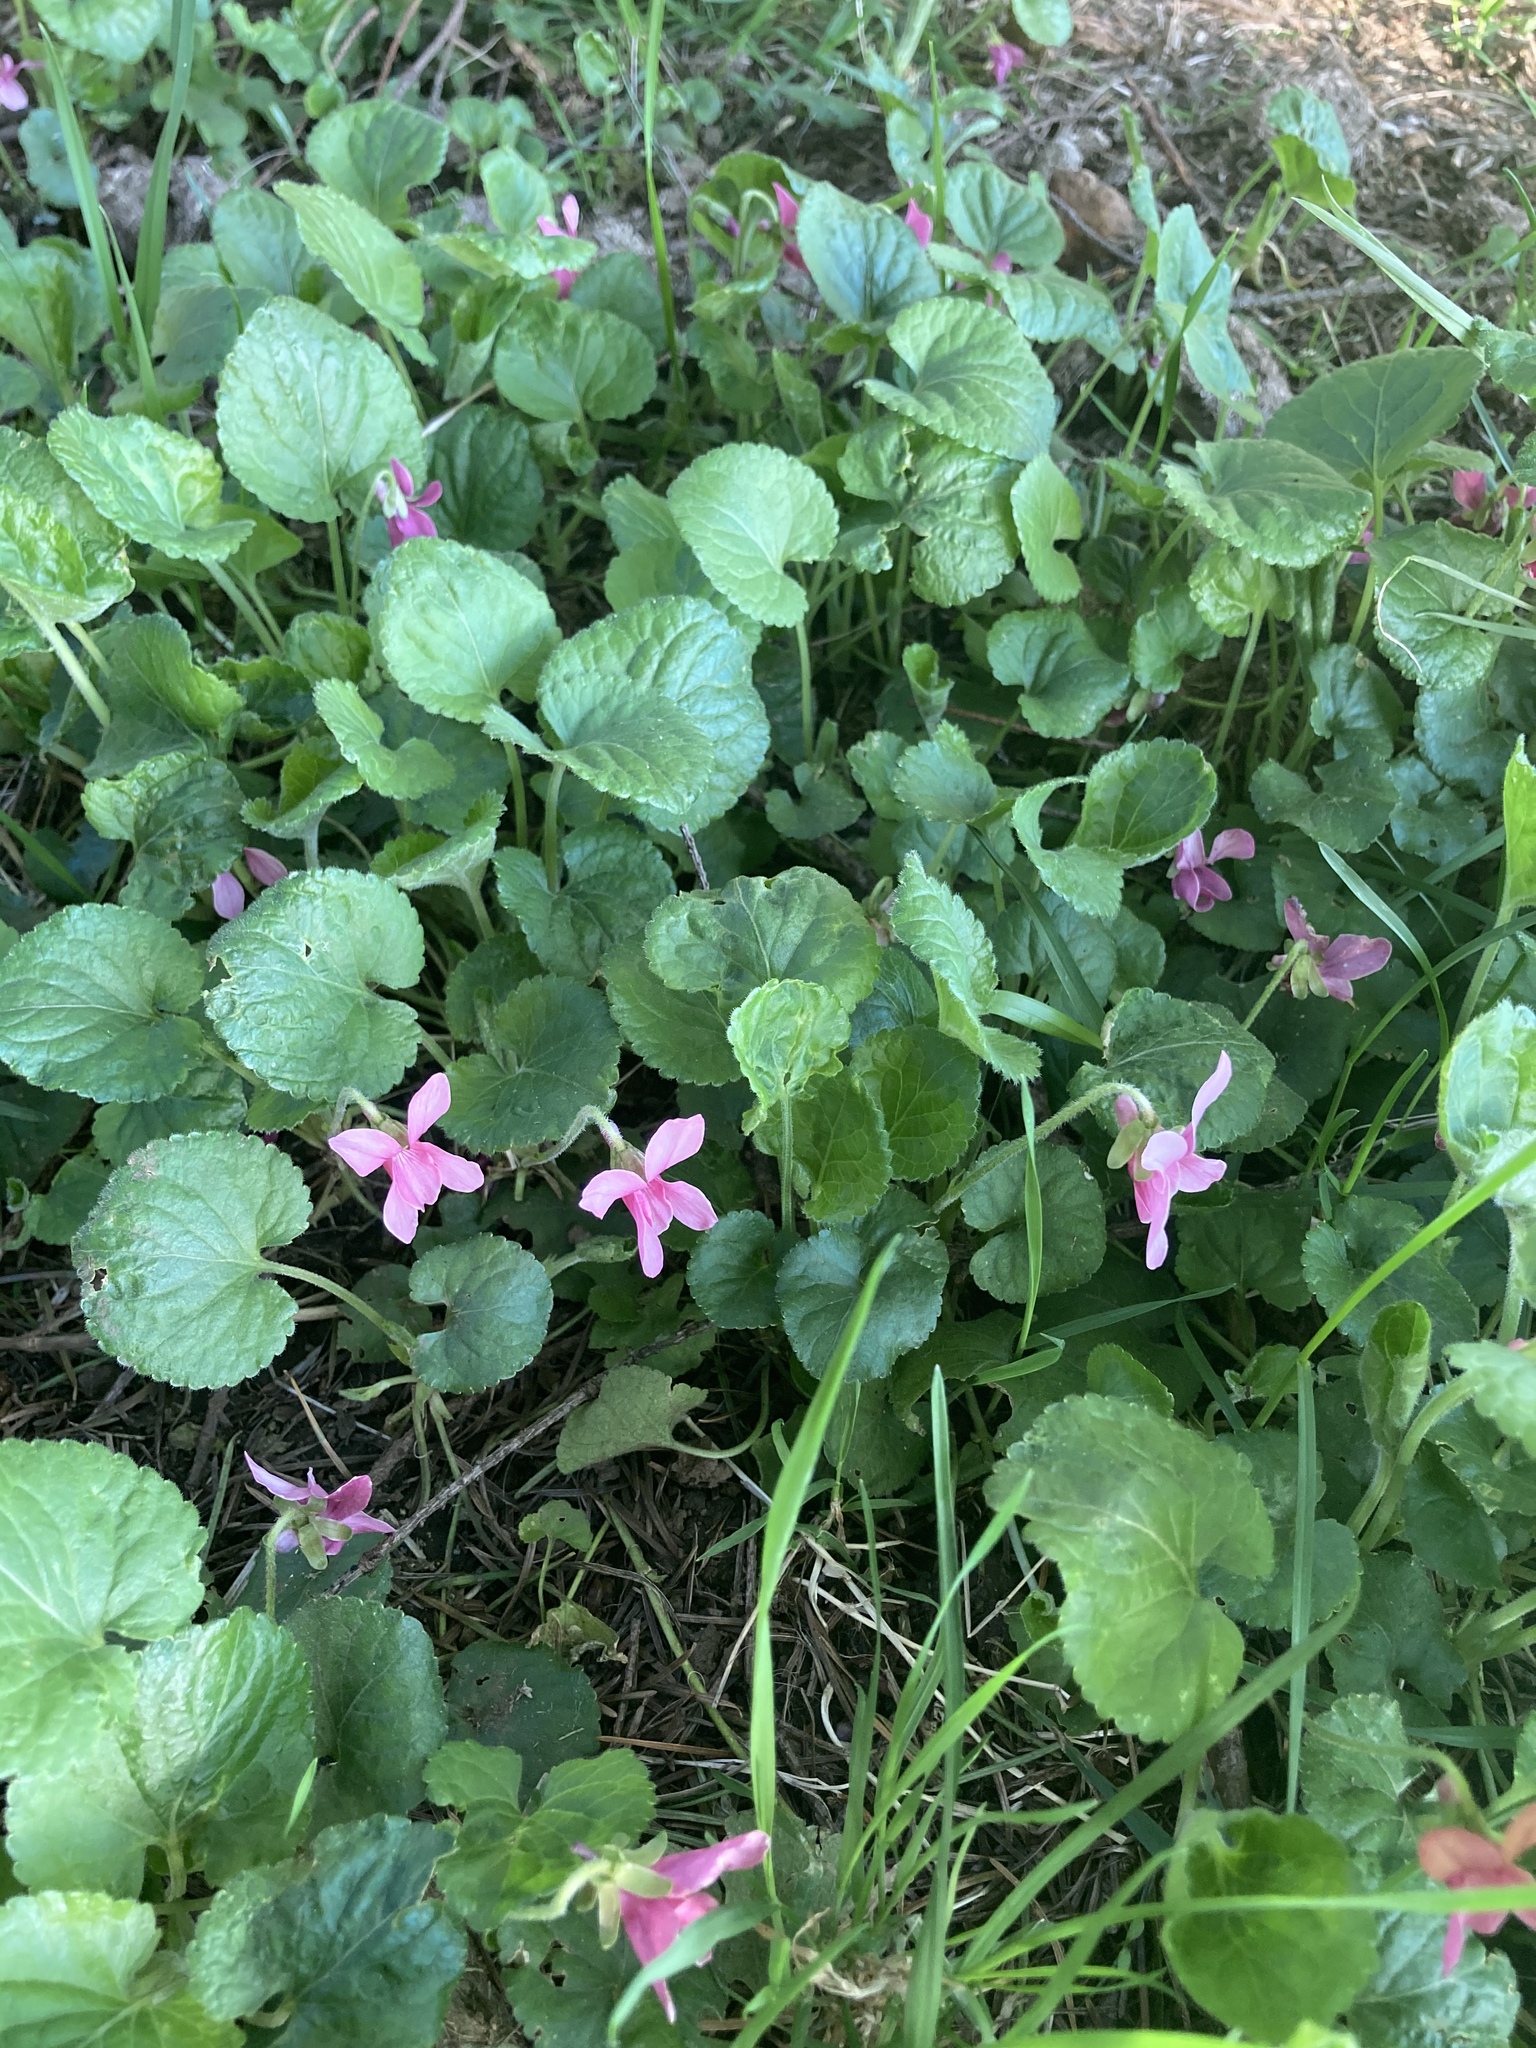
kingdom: Plantae
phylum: Tracheophyta
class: Magnoliopsida
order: Malpighiales
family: Violaceae
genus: Viola
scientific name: Viola odorata
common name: Sweet violet
